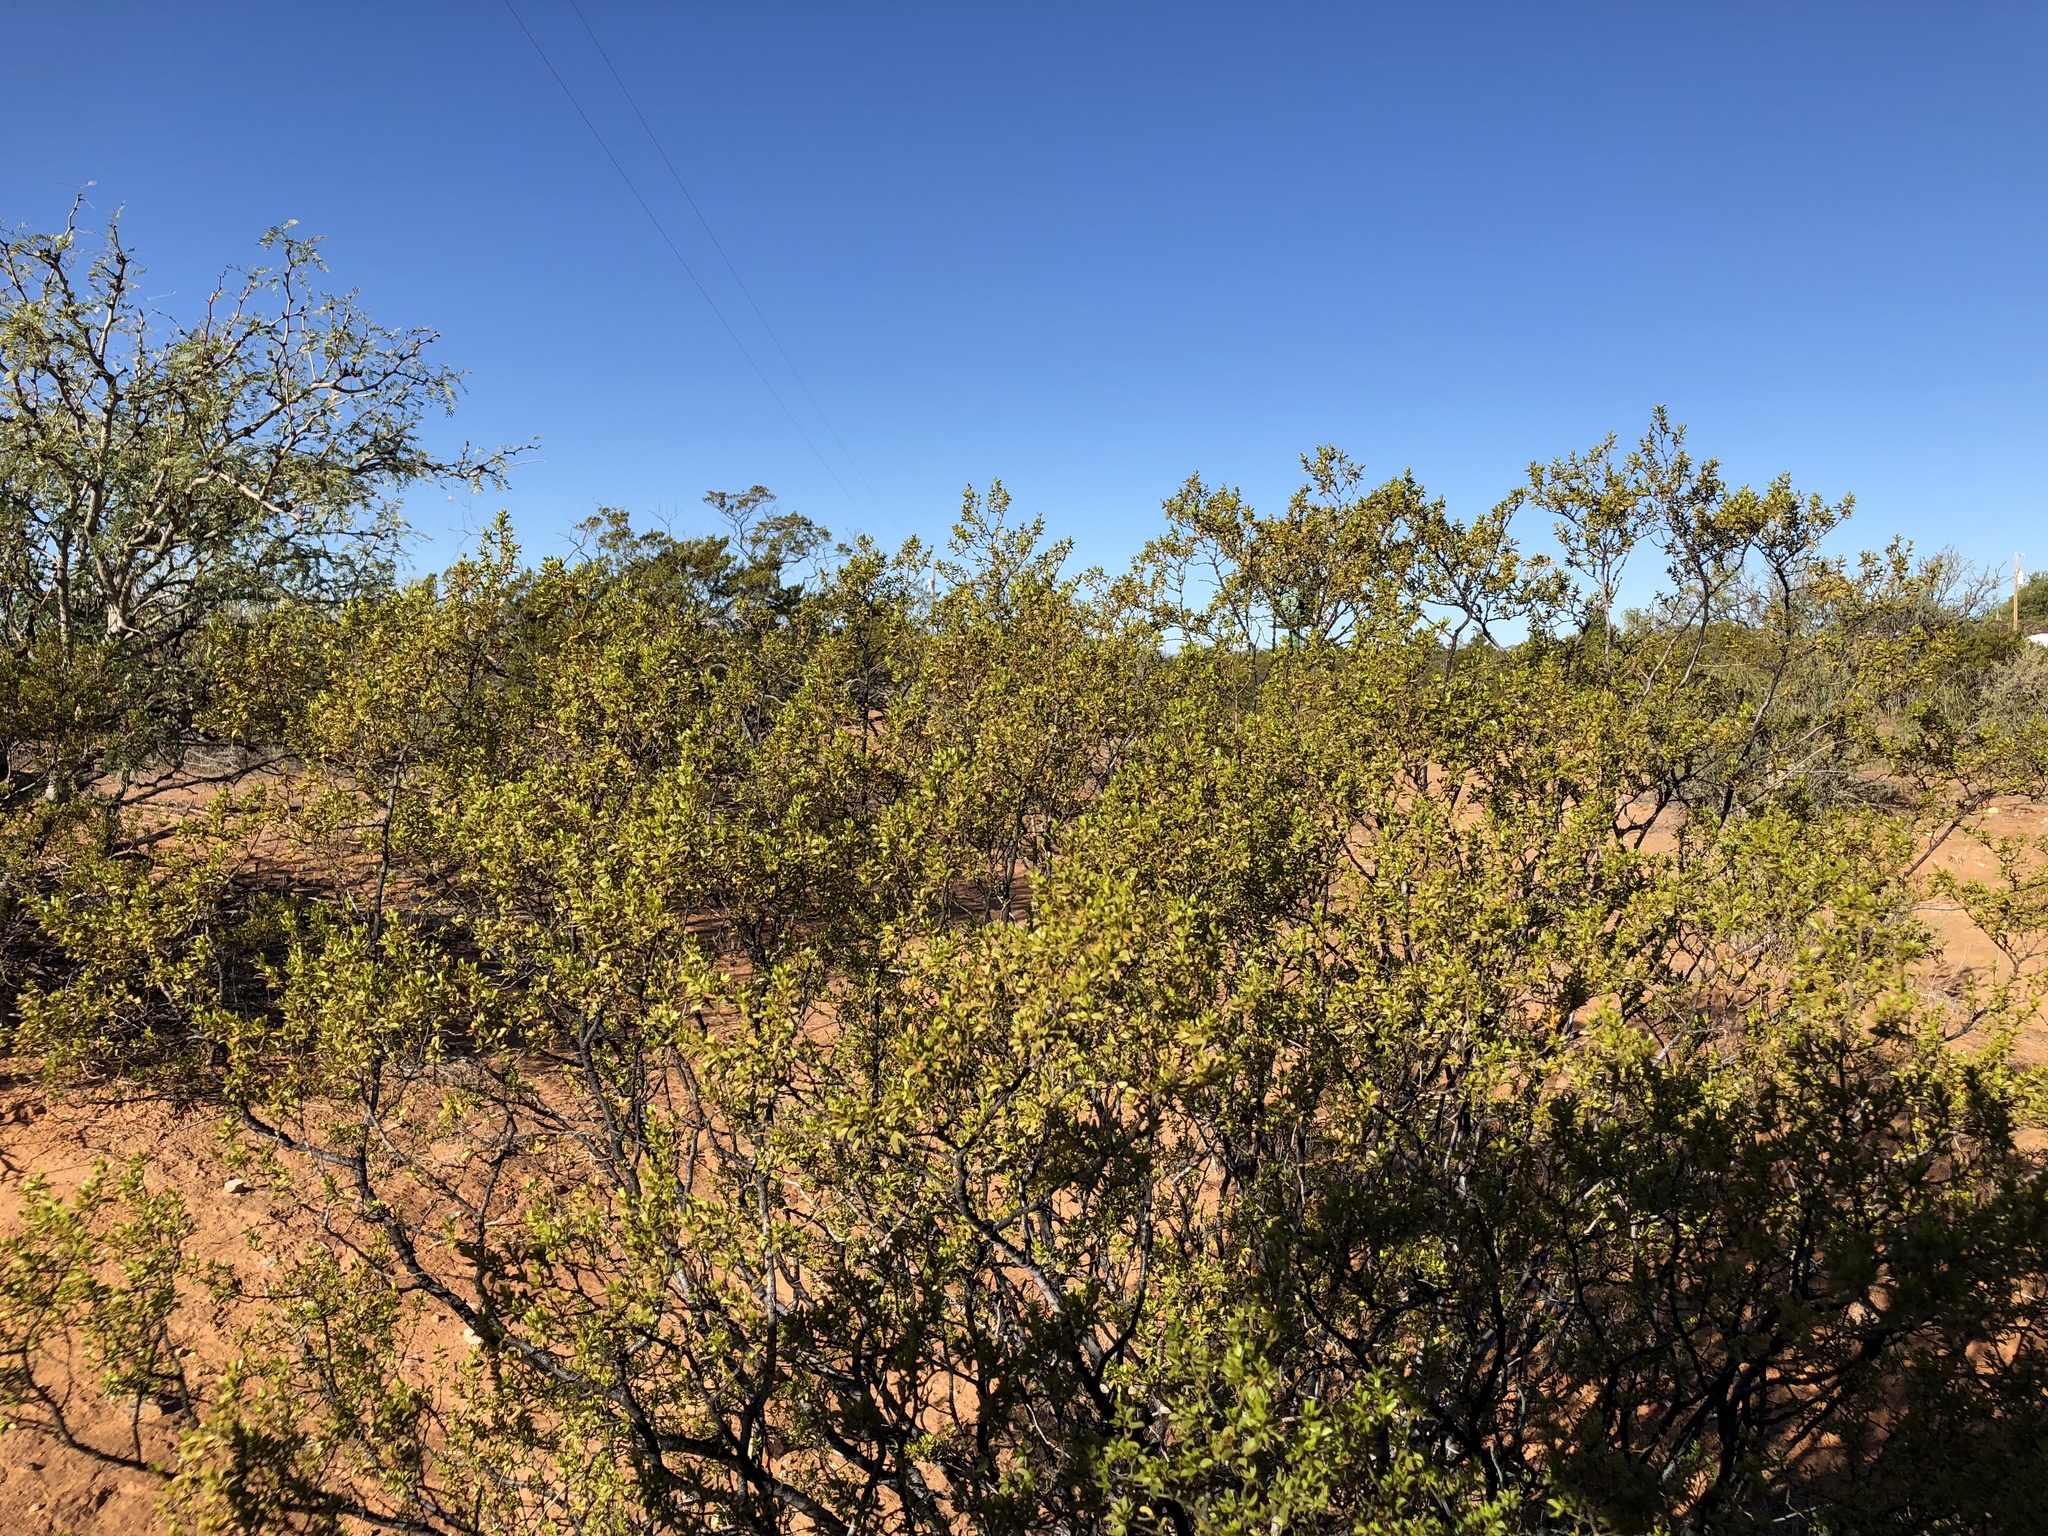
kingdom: Plantae
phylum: Tracheophyta
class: Magnoliopsida
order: Zygophyllales
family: Zygophyllaceae
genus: Larrea
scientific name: Larrea tridentata
